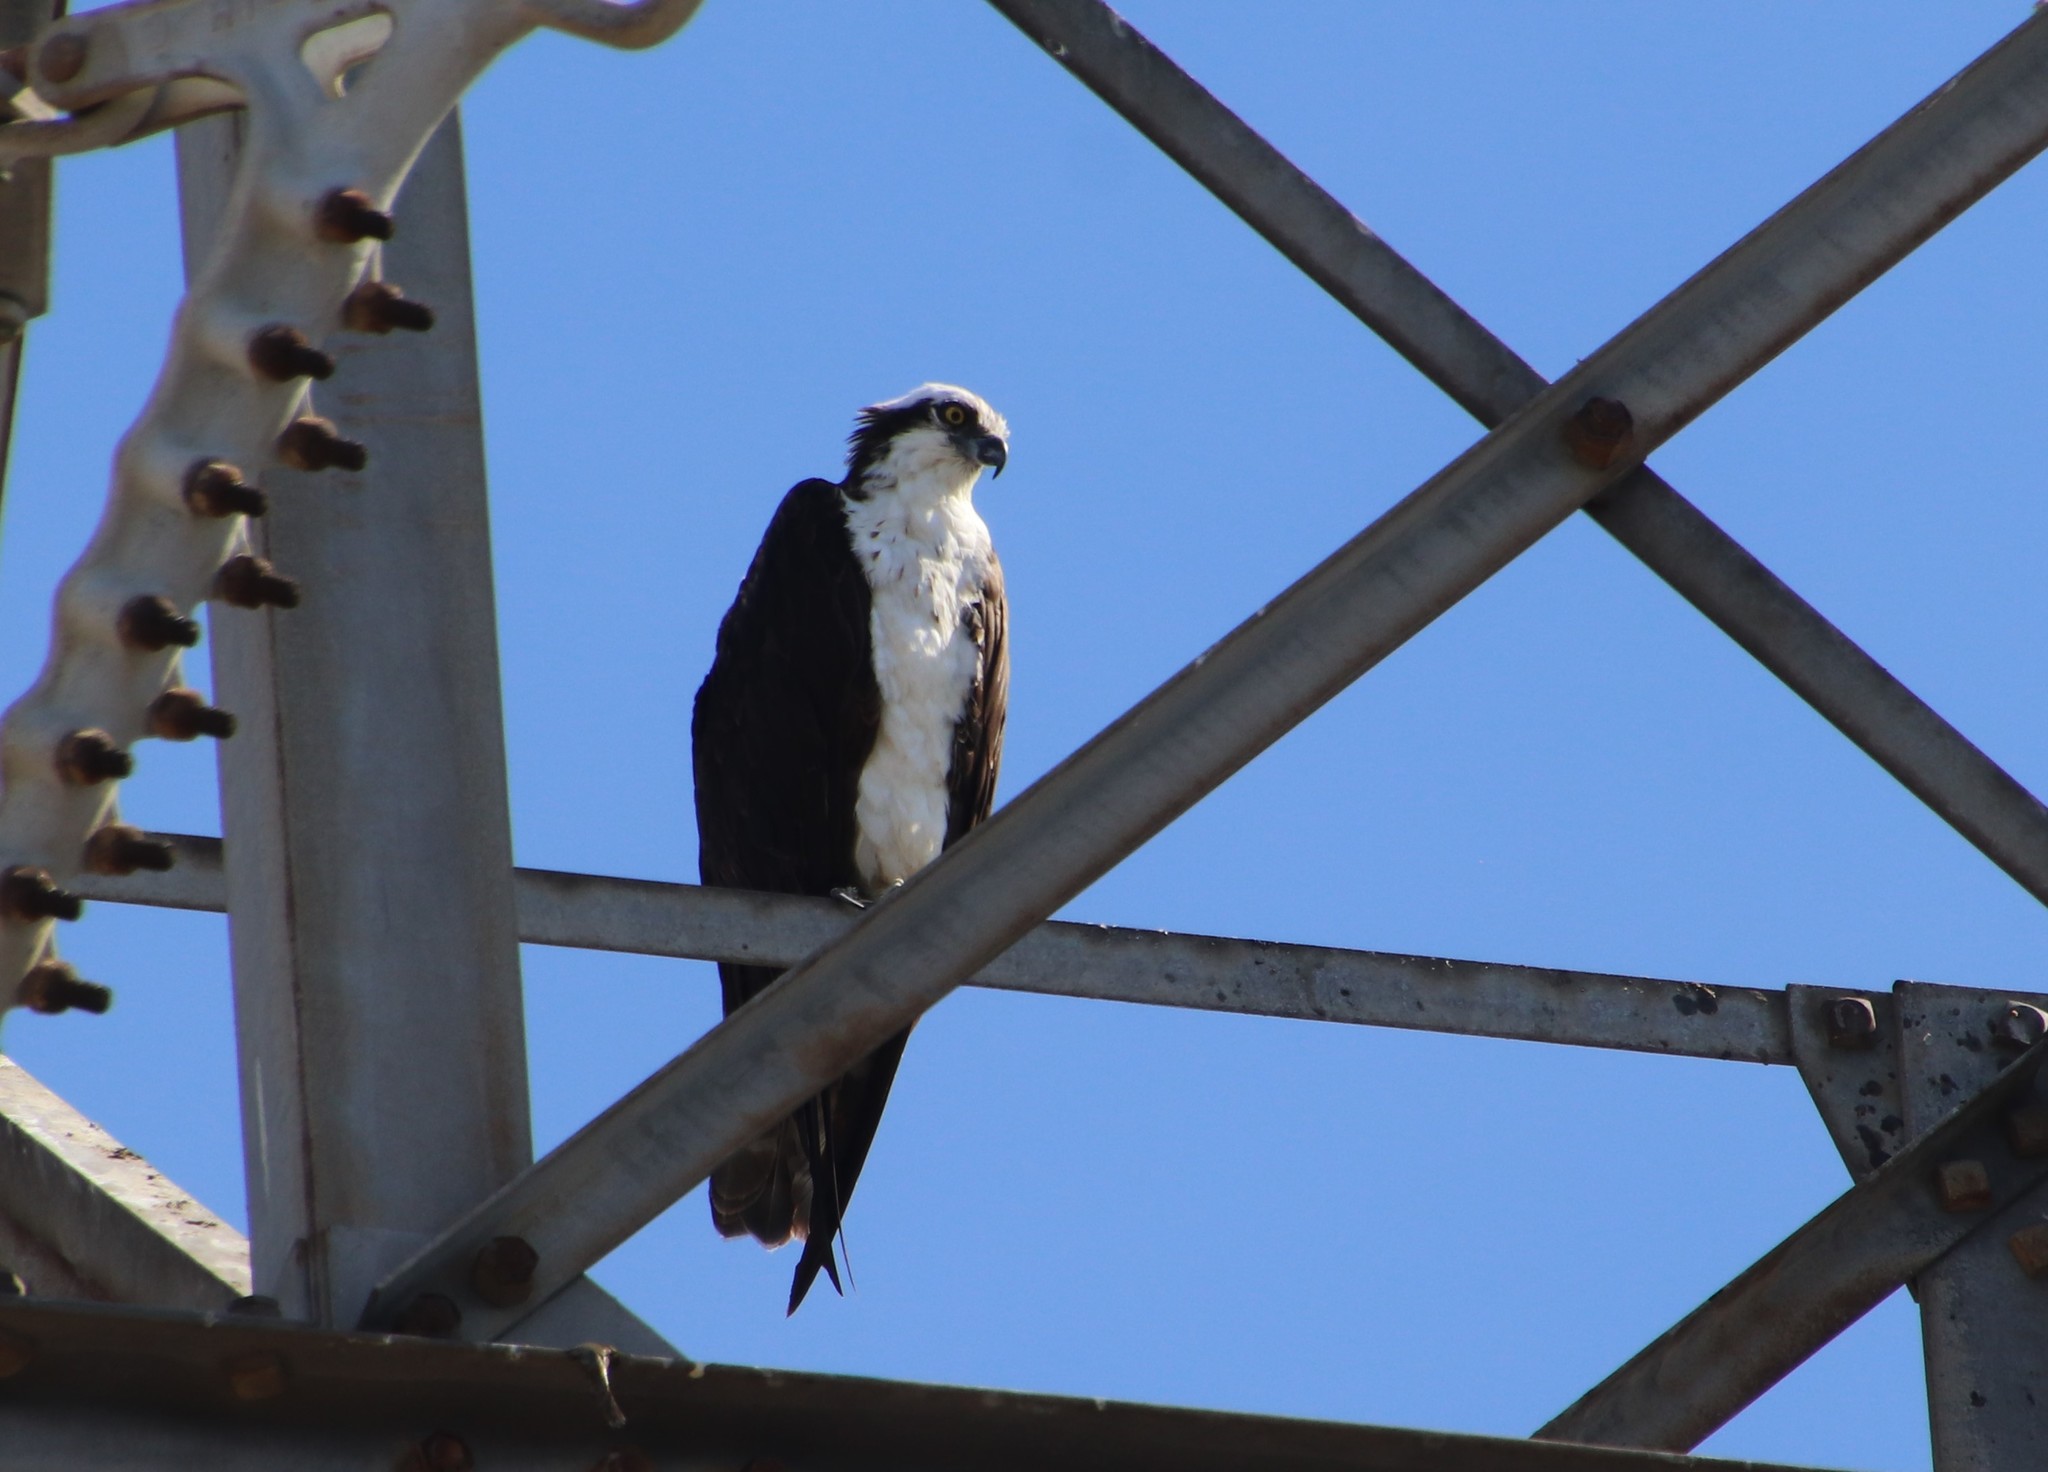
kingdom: Animalia
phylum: Chordata
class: Aves
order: Accipitriformes
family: Pandionidae
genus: Pandion
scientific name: Pandion haliaetus
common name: Osprey
